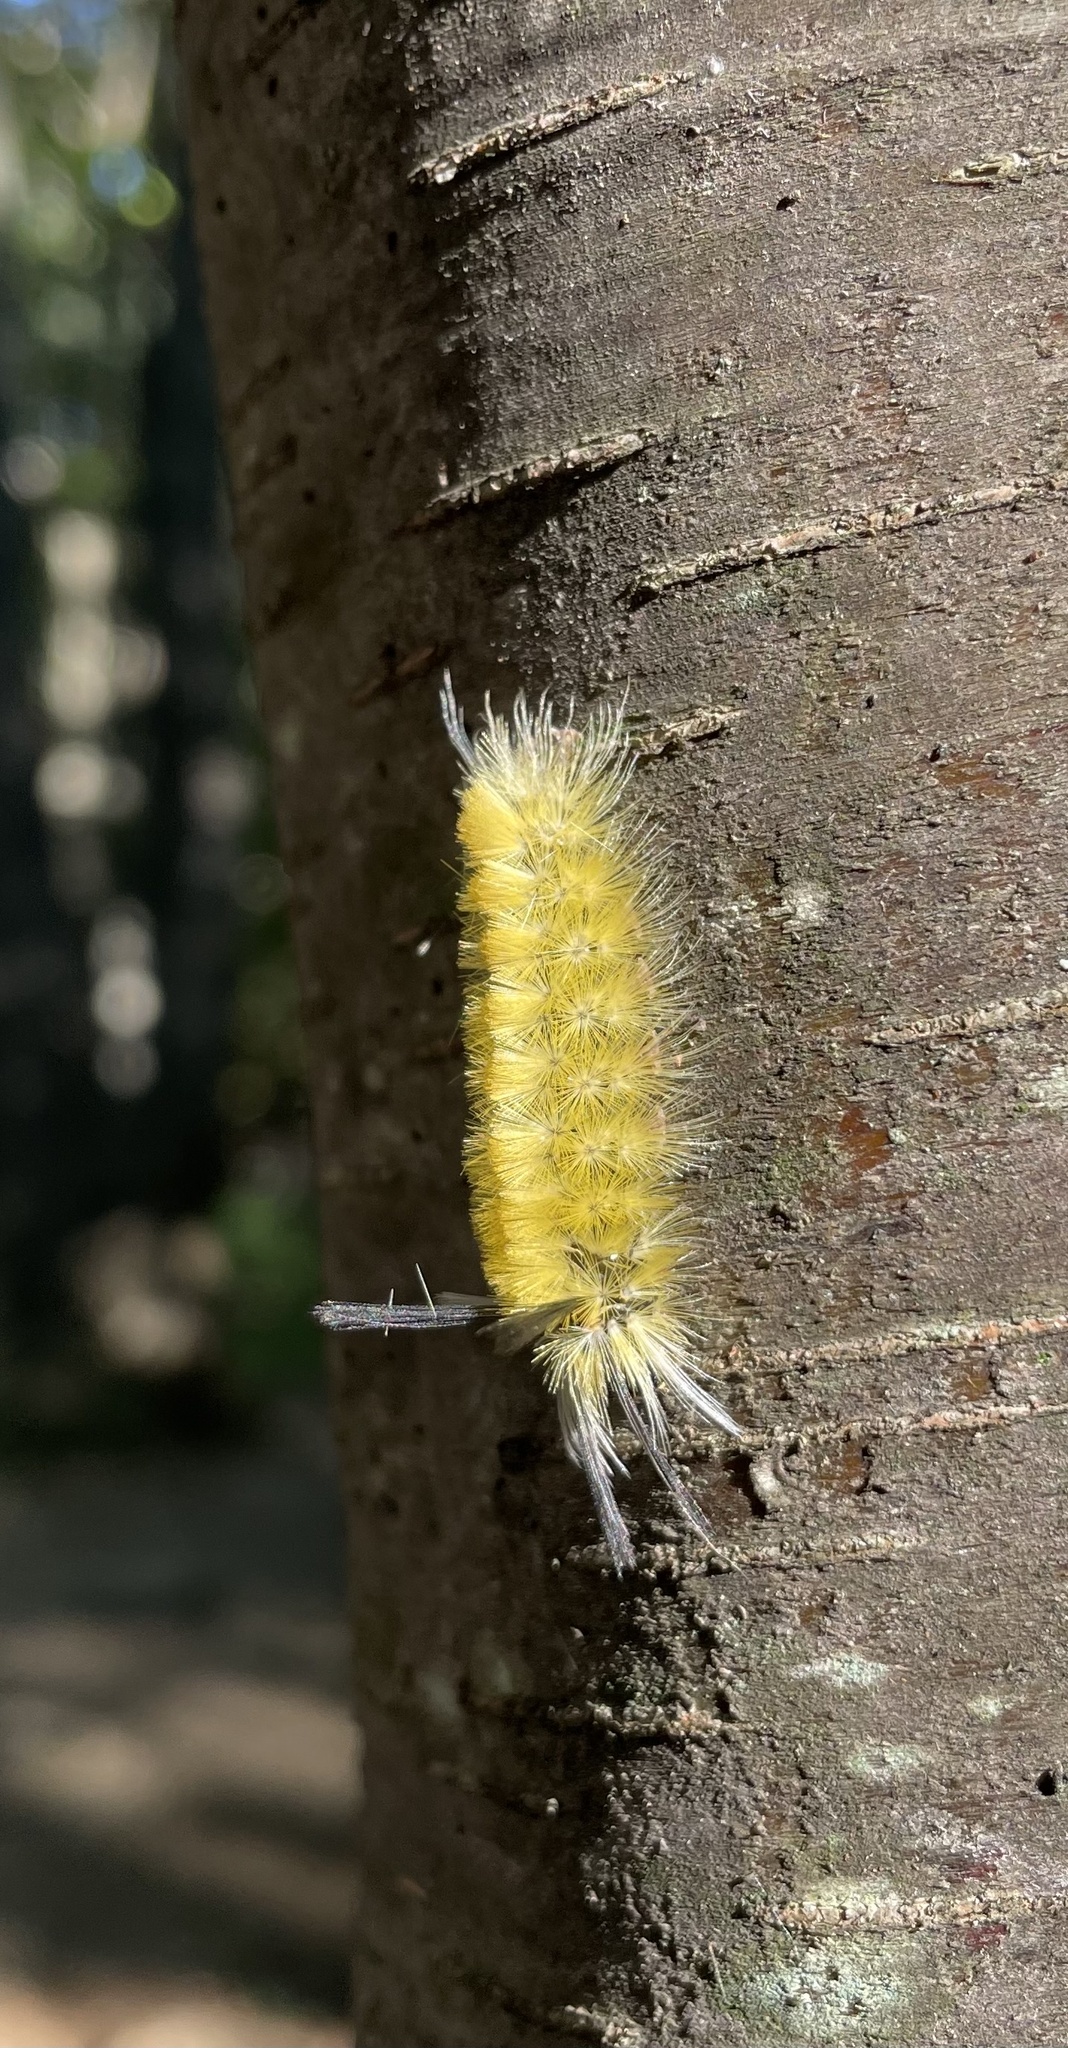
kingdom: Animalia
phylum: Arthropoda
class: Insecta
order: Lepidoptera
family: Erebidae
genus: Halysidota
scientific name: Halysidota tessellaris
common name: Banded tussock moth
